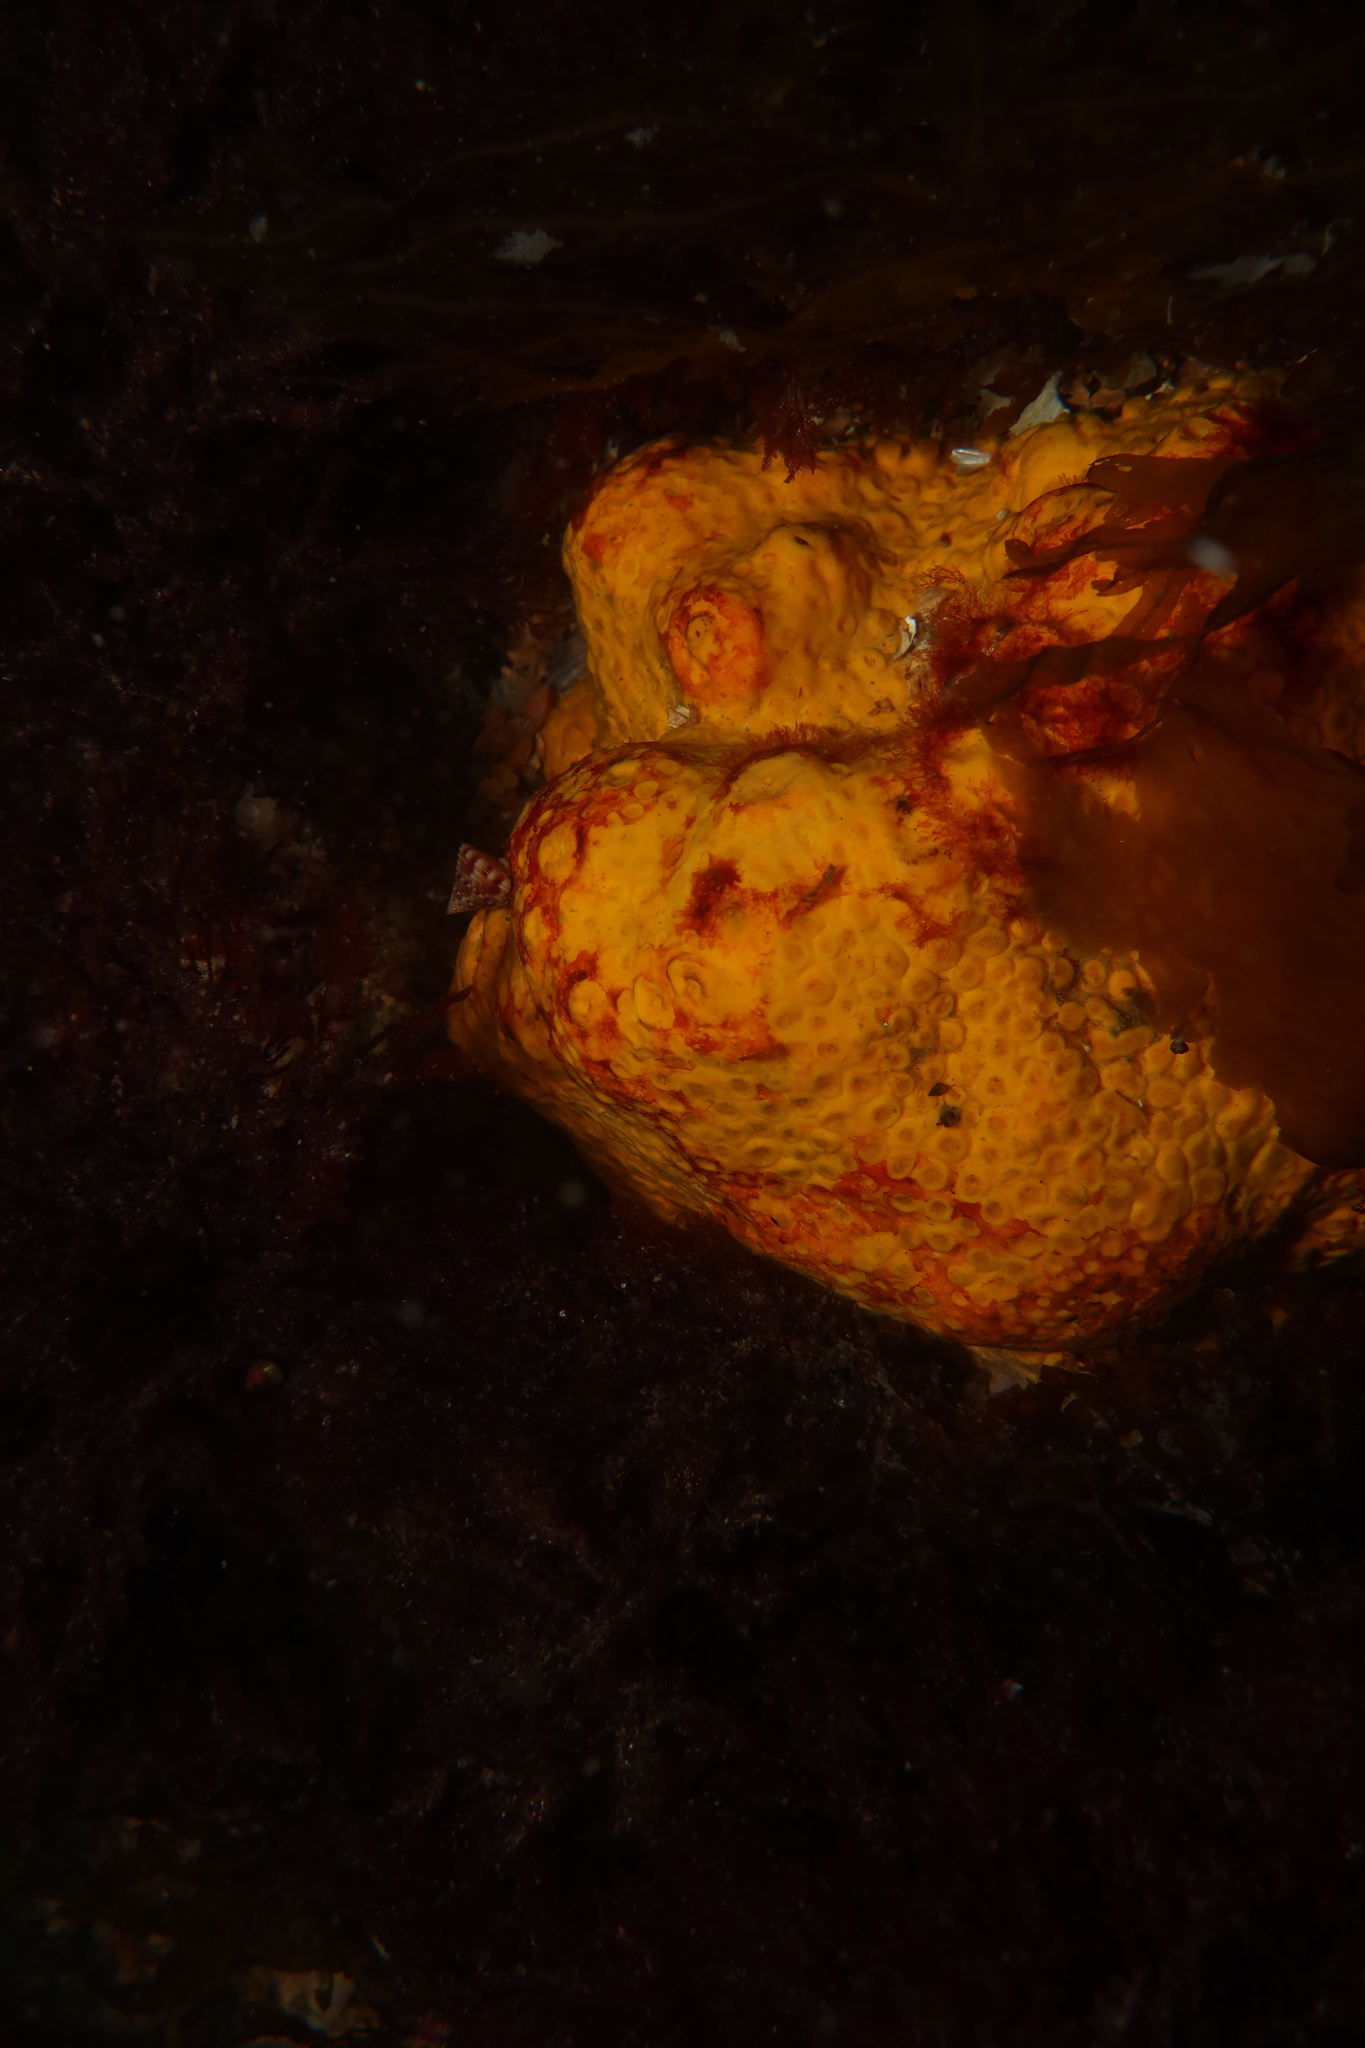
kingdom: Animalia
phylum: Porifera
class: Demospongiae
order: Clionaida
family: Clionaidae
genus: Cliona
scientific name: Cliona celata
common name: Boring sponge
